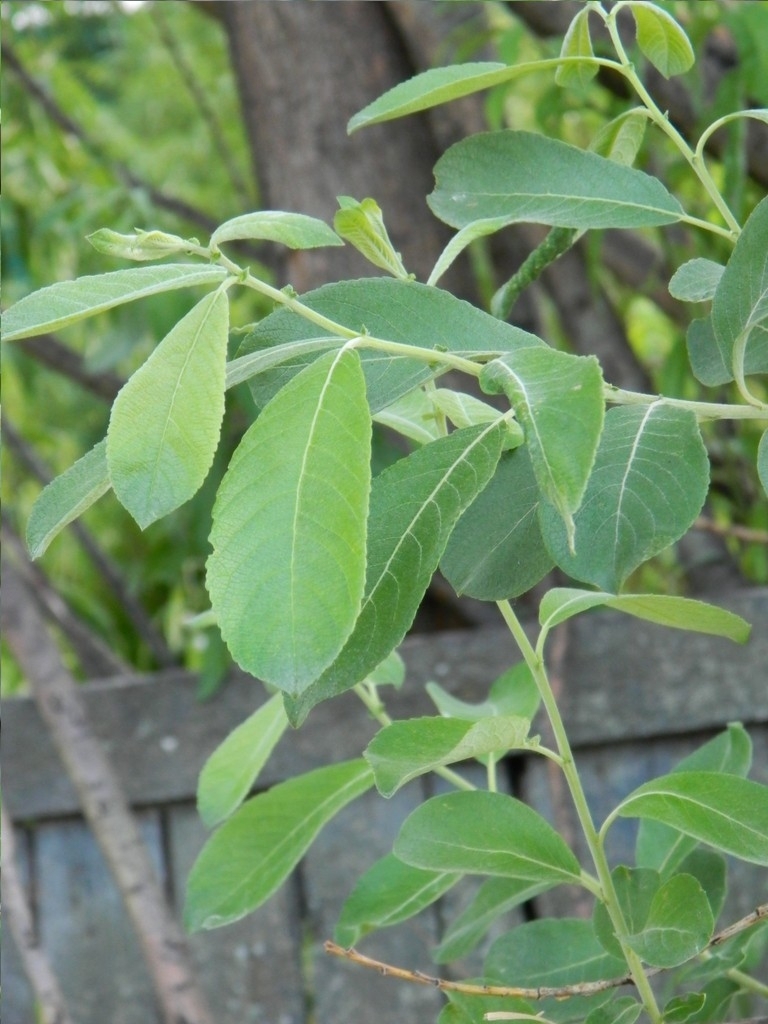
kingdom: Plantae
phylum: Tracheophyta
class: Magnoliopsida
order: Malpighiales
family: Salicaceae
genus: Salix
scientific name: Salix cinerea
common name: Common sallow
